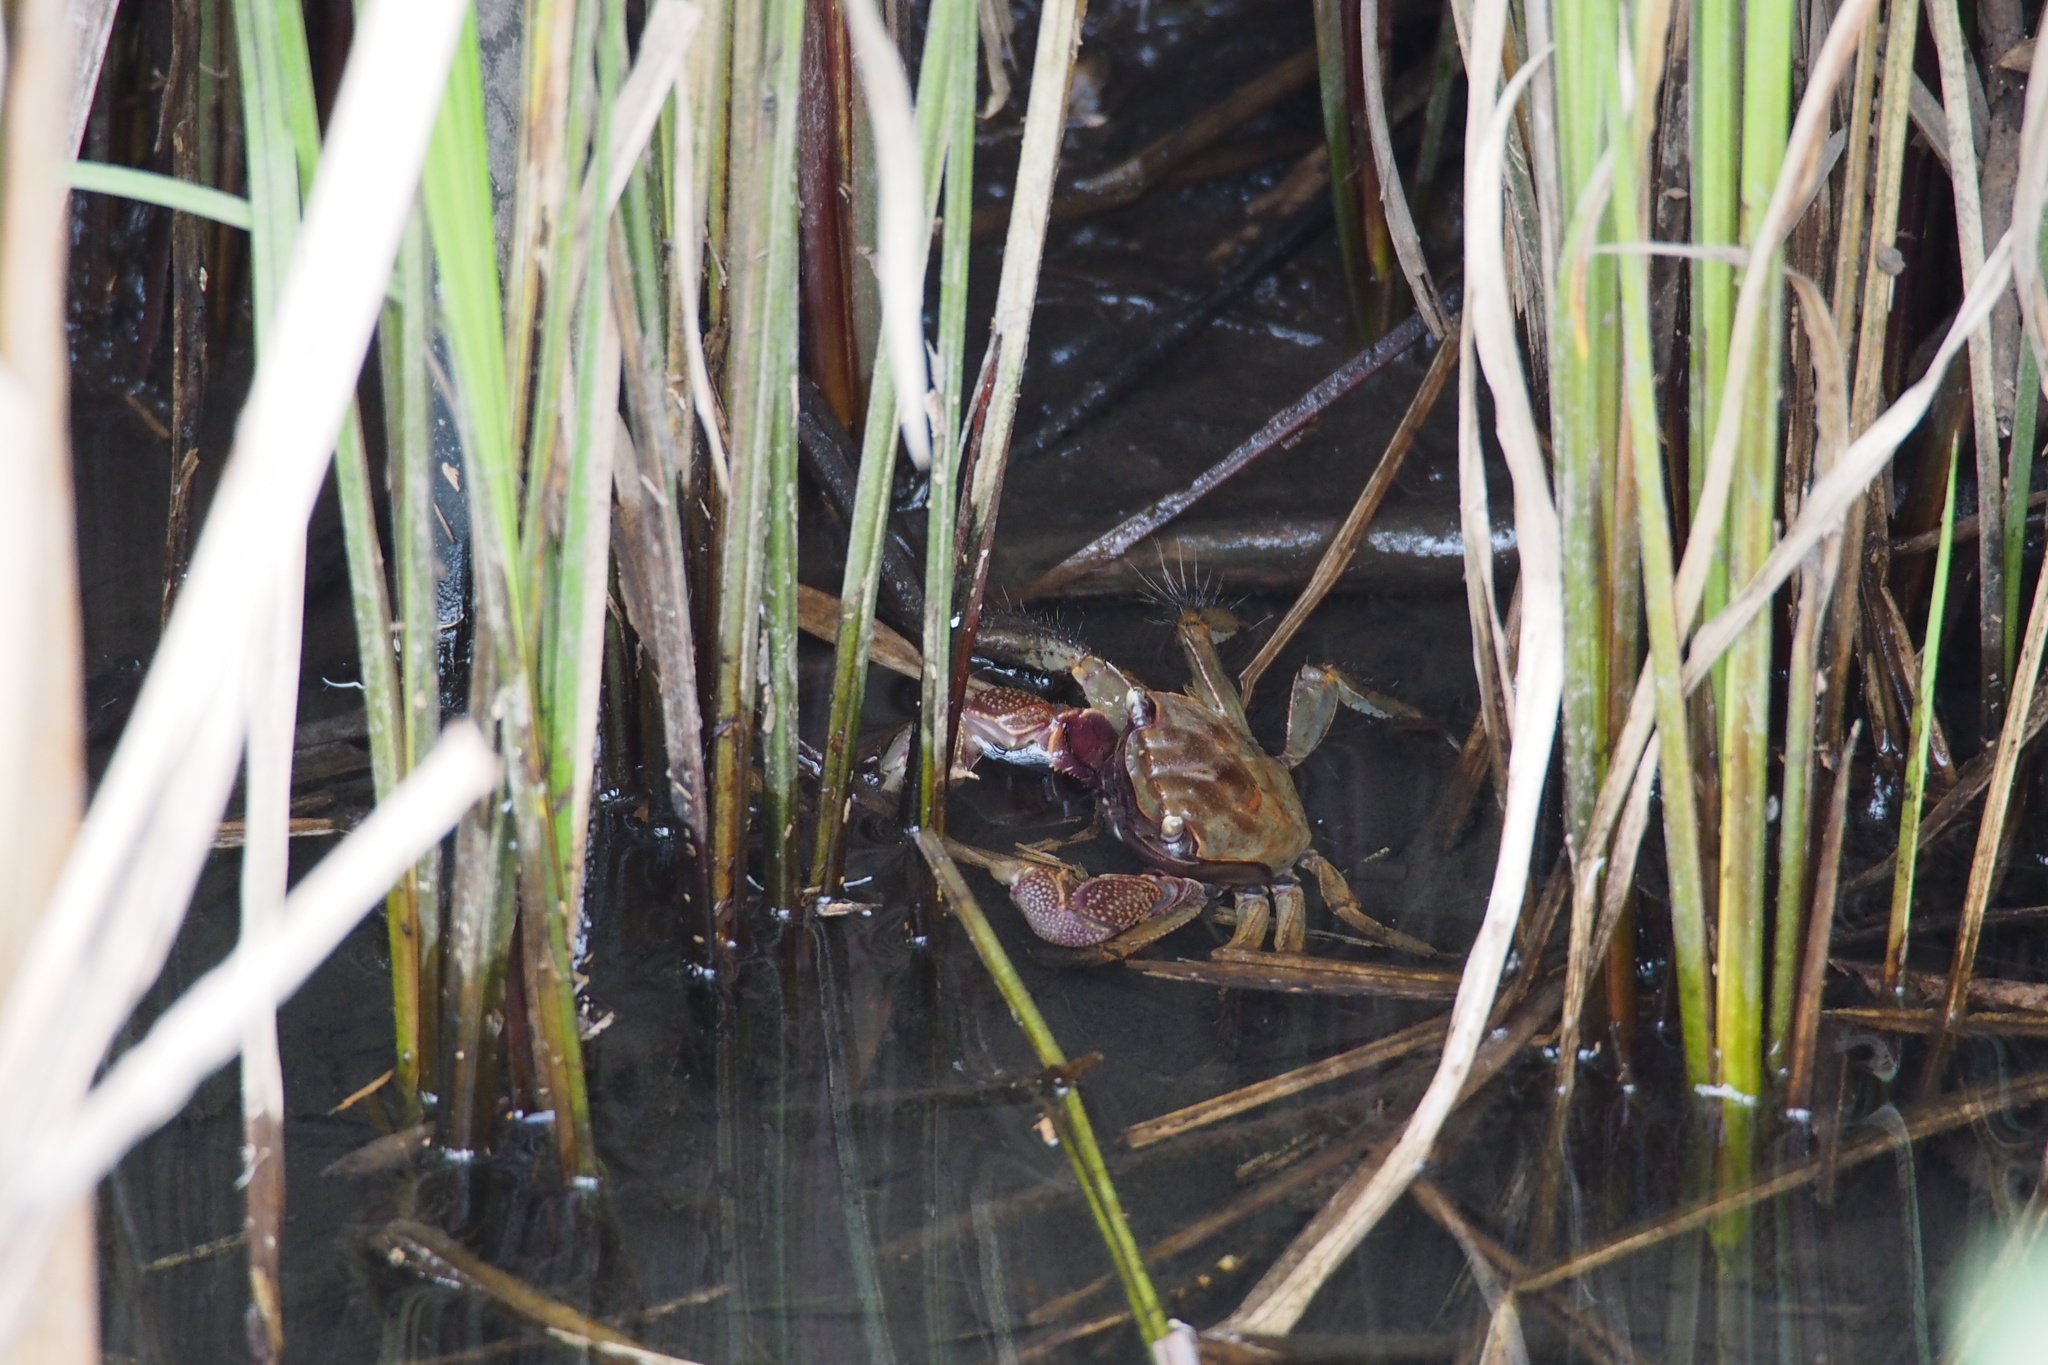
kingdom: Animalia
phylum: Arthropoda
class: Malacostraca
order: Decapoda
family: Sesarmidae
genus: Orisarma
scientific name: Orisarma dehaani
